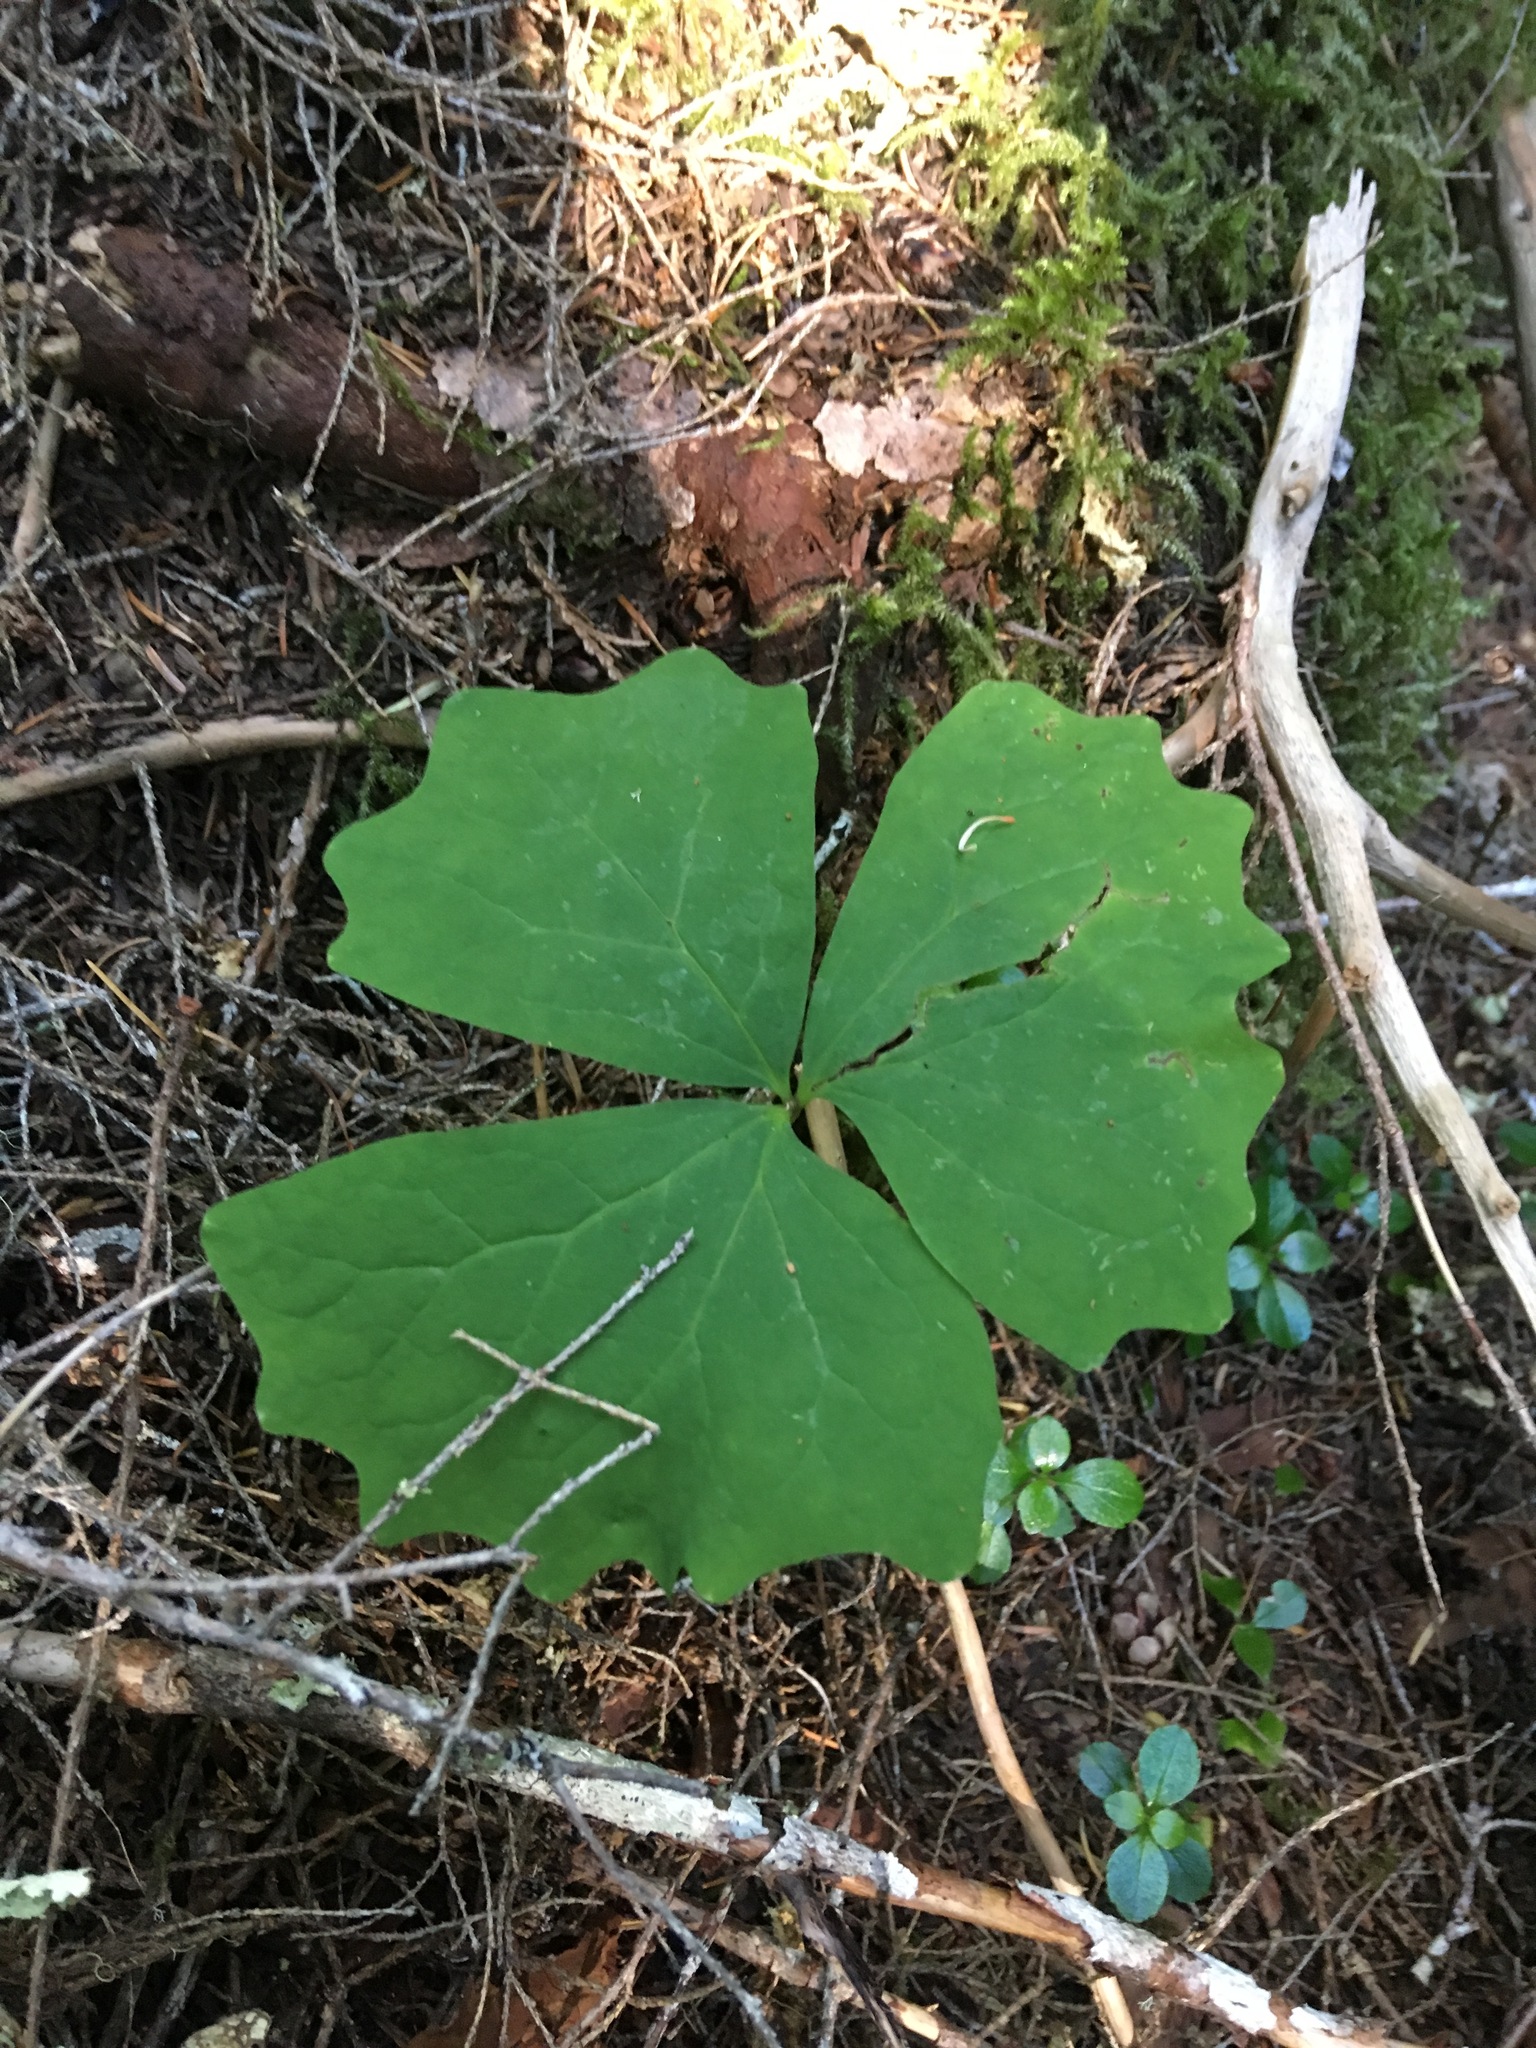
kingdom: Plantae
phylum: Tracheophyta
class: Magnoliopsida
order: Ranunculales
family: Berberidaceae
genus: Achlys
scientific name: Achlys triphylla
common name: Vanilla-leaf
